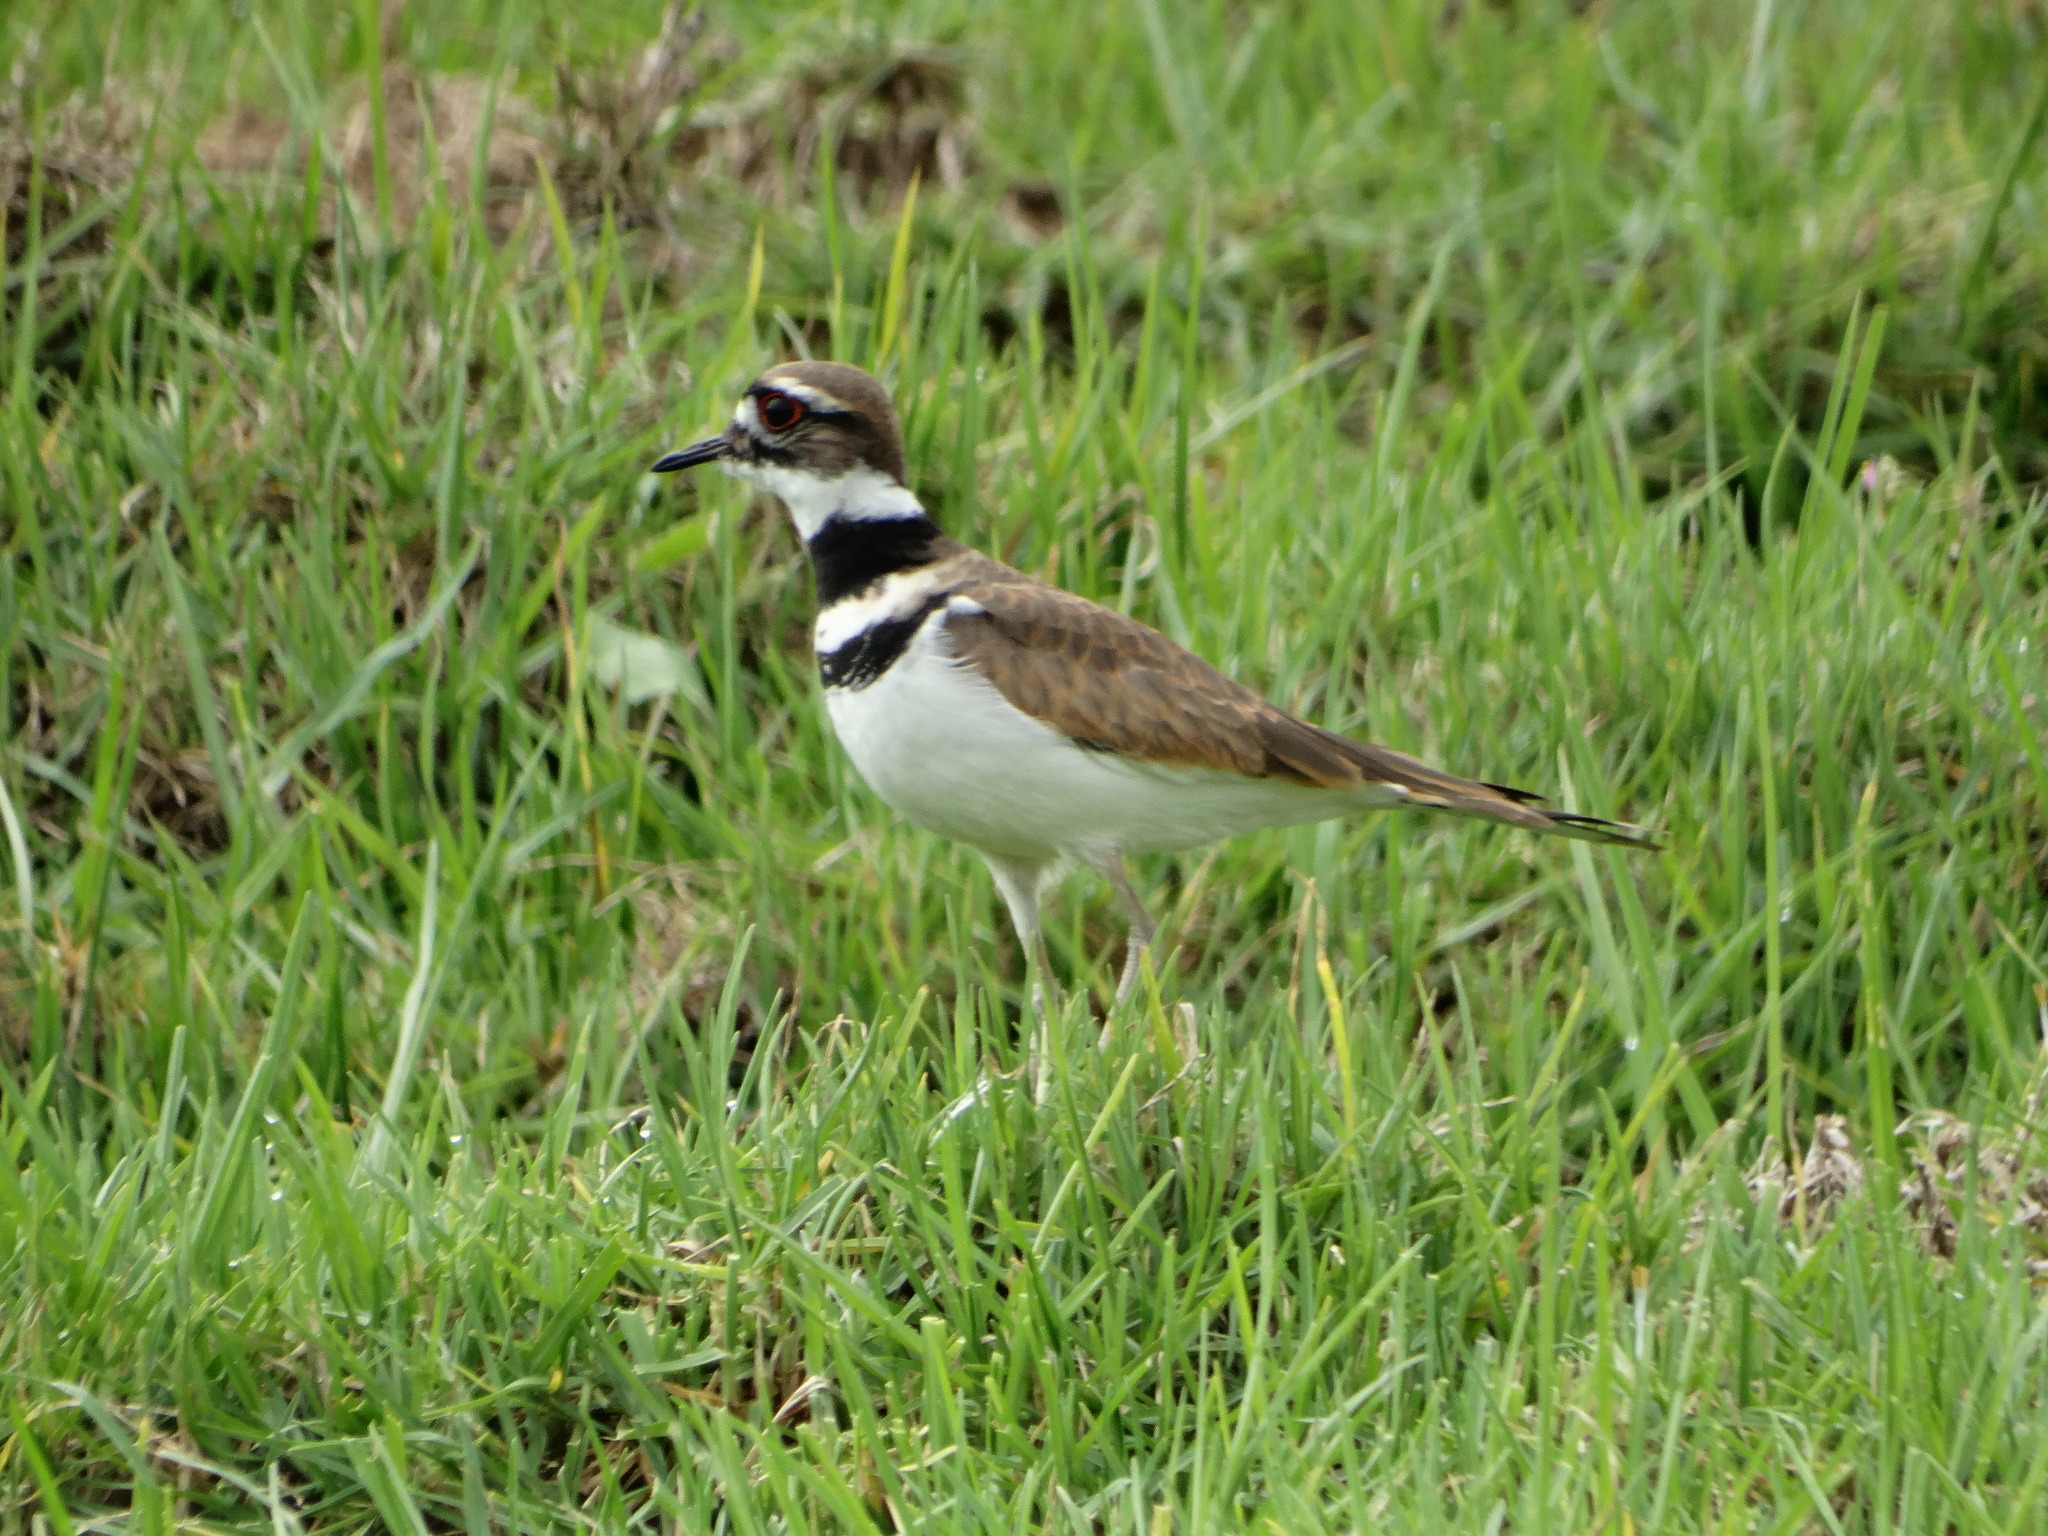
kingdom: Animalia
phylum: Chordata
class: Aves
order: Charadriiformes
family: Charadriidae
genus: Charadrius
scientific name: Charadrius vociferus
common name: Killdeer
